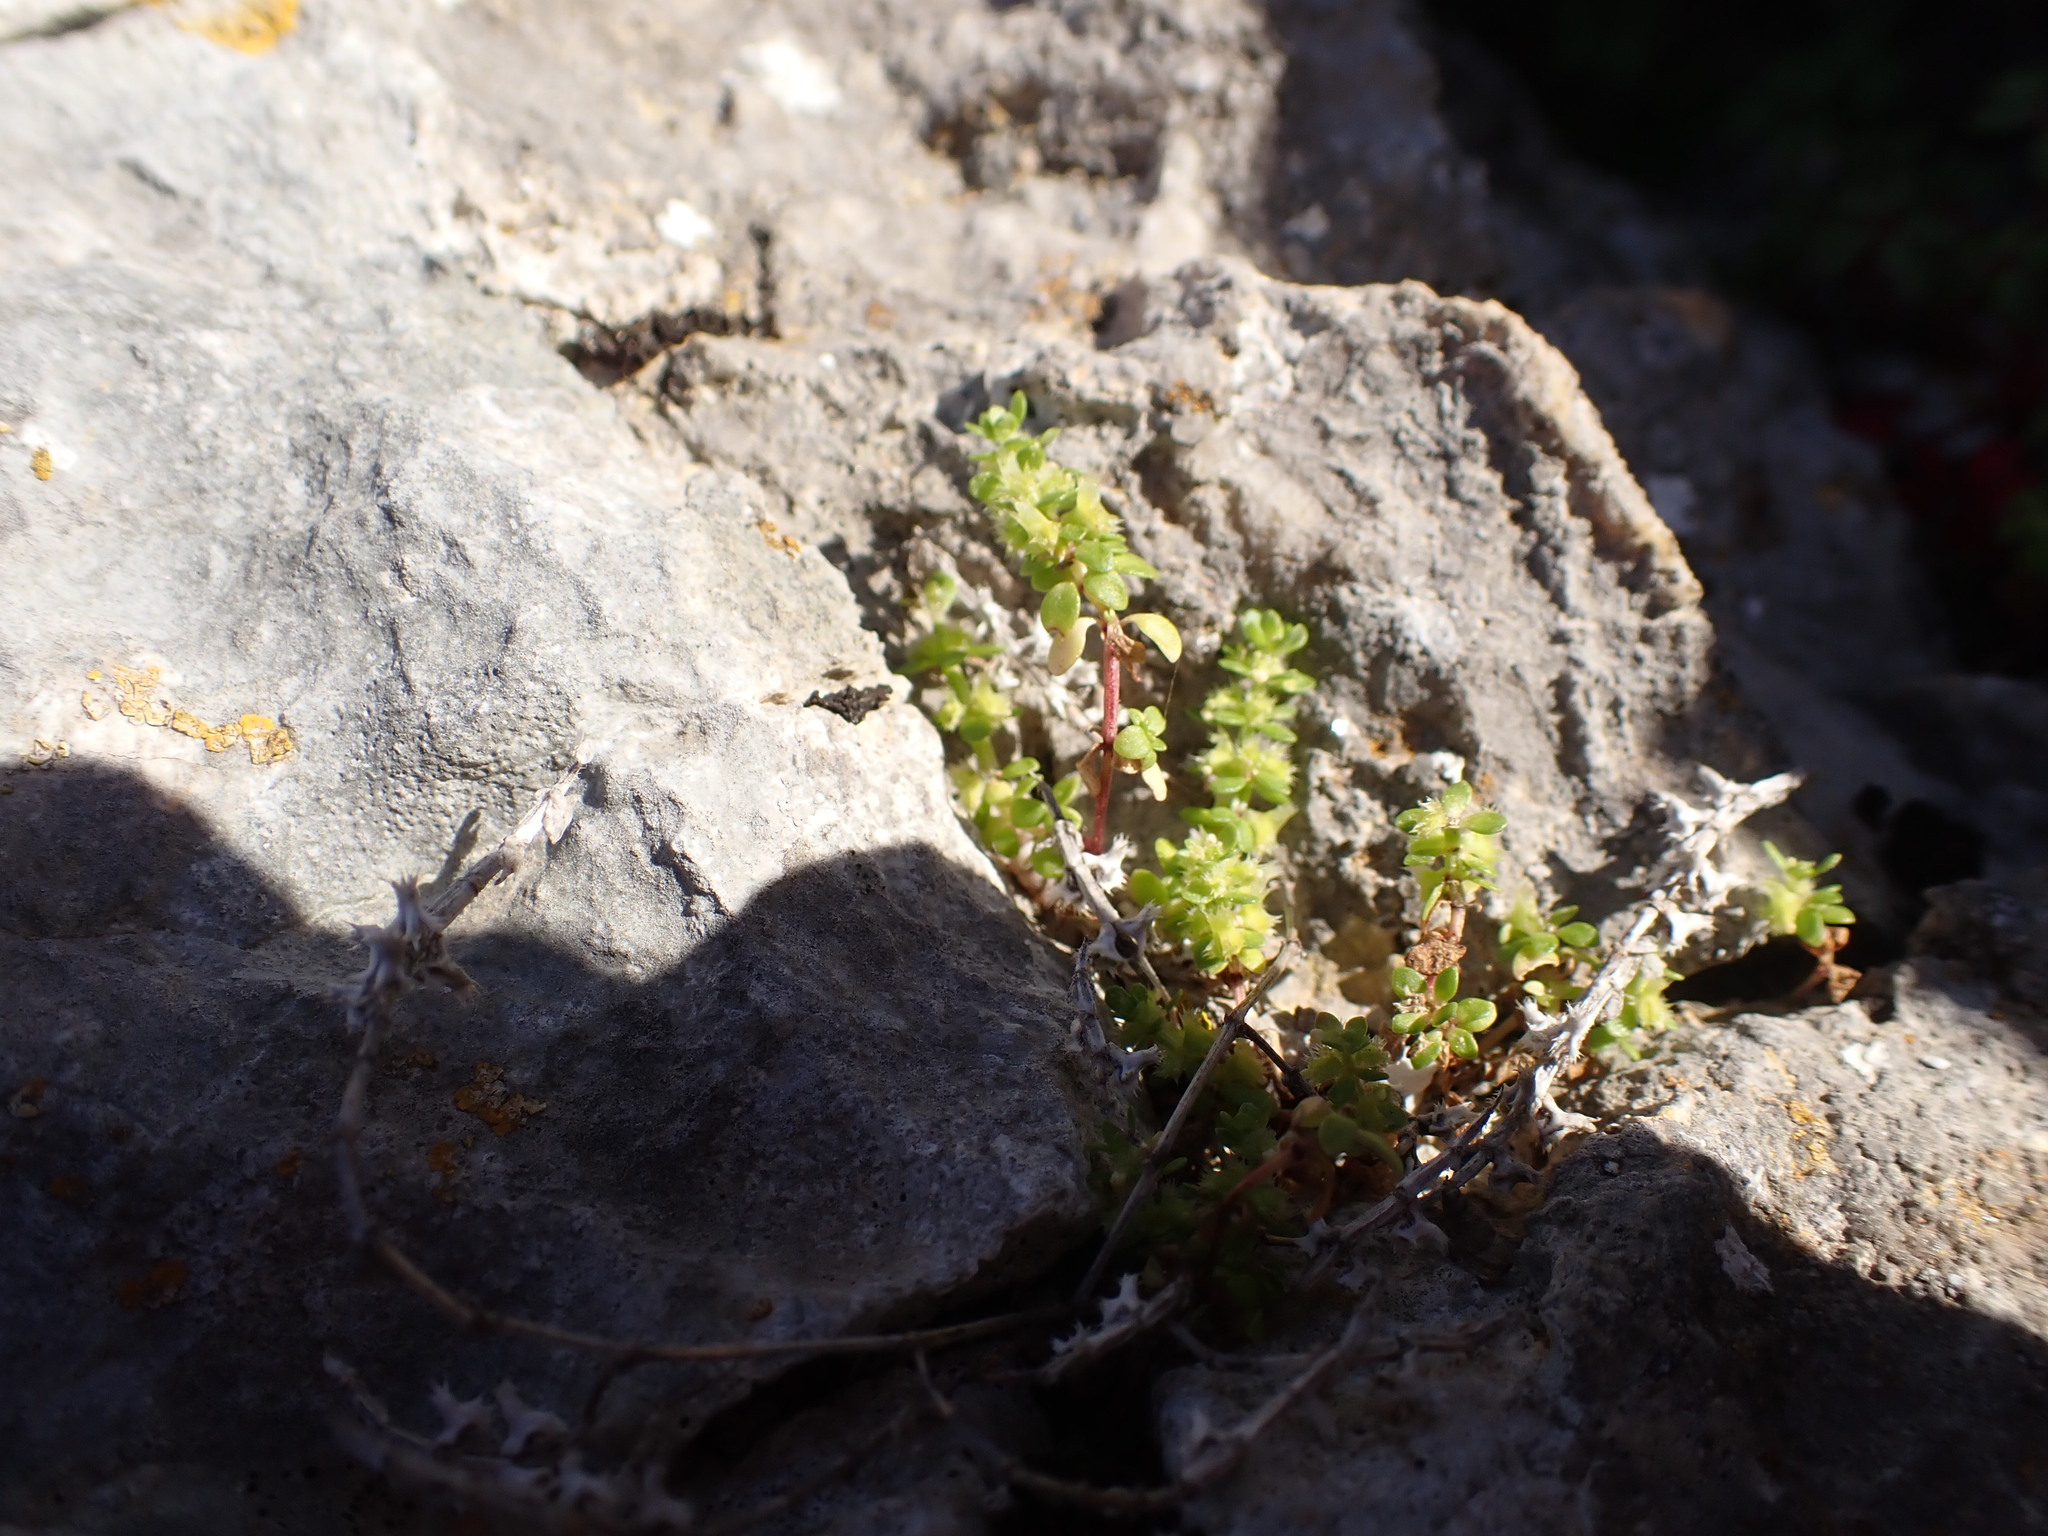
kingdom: Plantae
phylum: Tracheophyta
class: Magnoliopsida
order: Gentianales
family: Rubiaceae
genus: Valantia
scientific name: Valantia muralis
